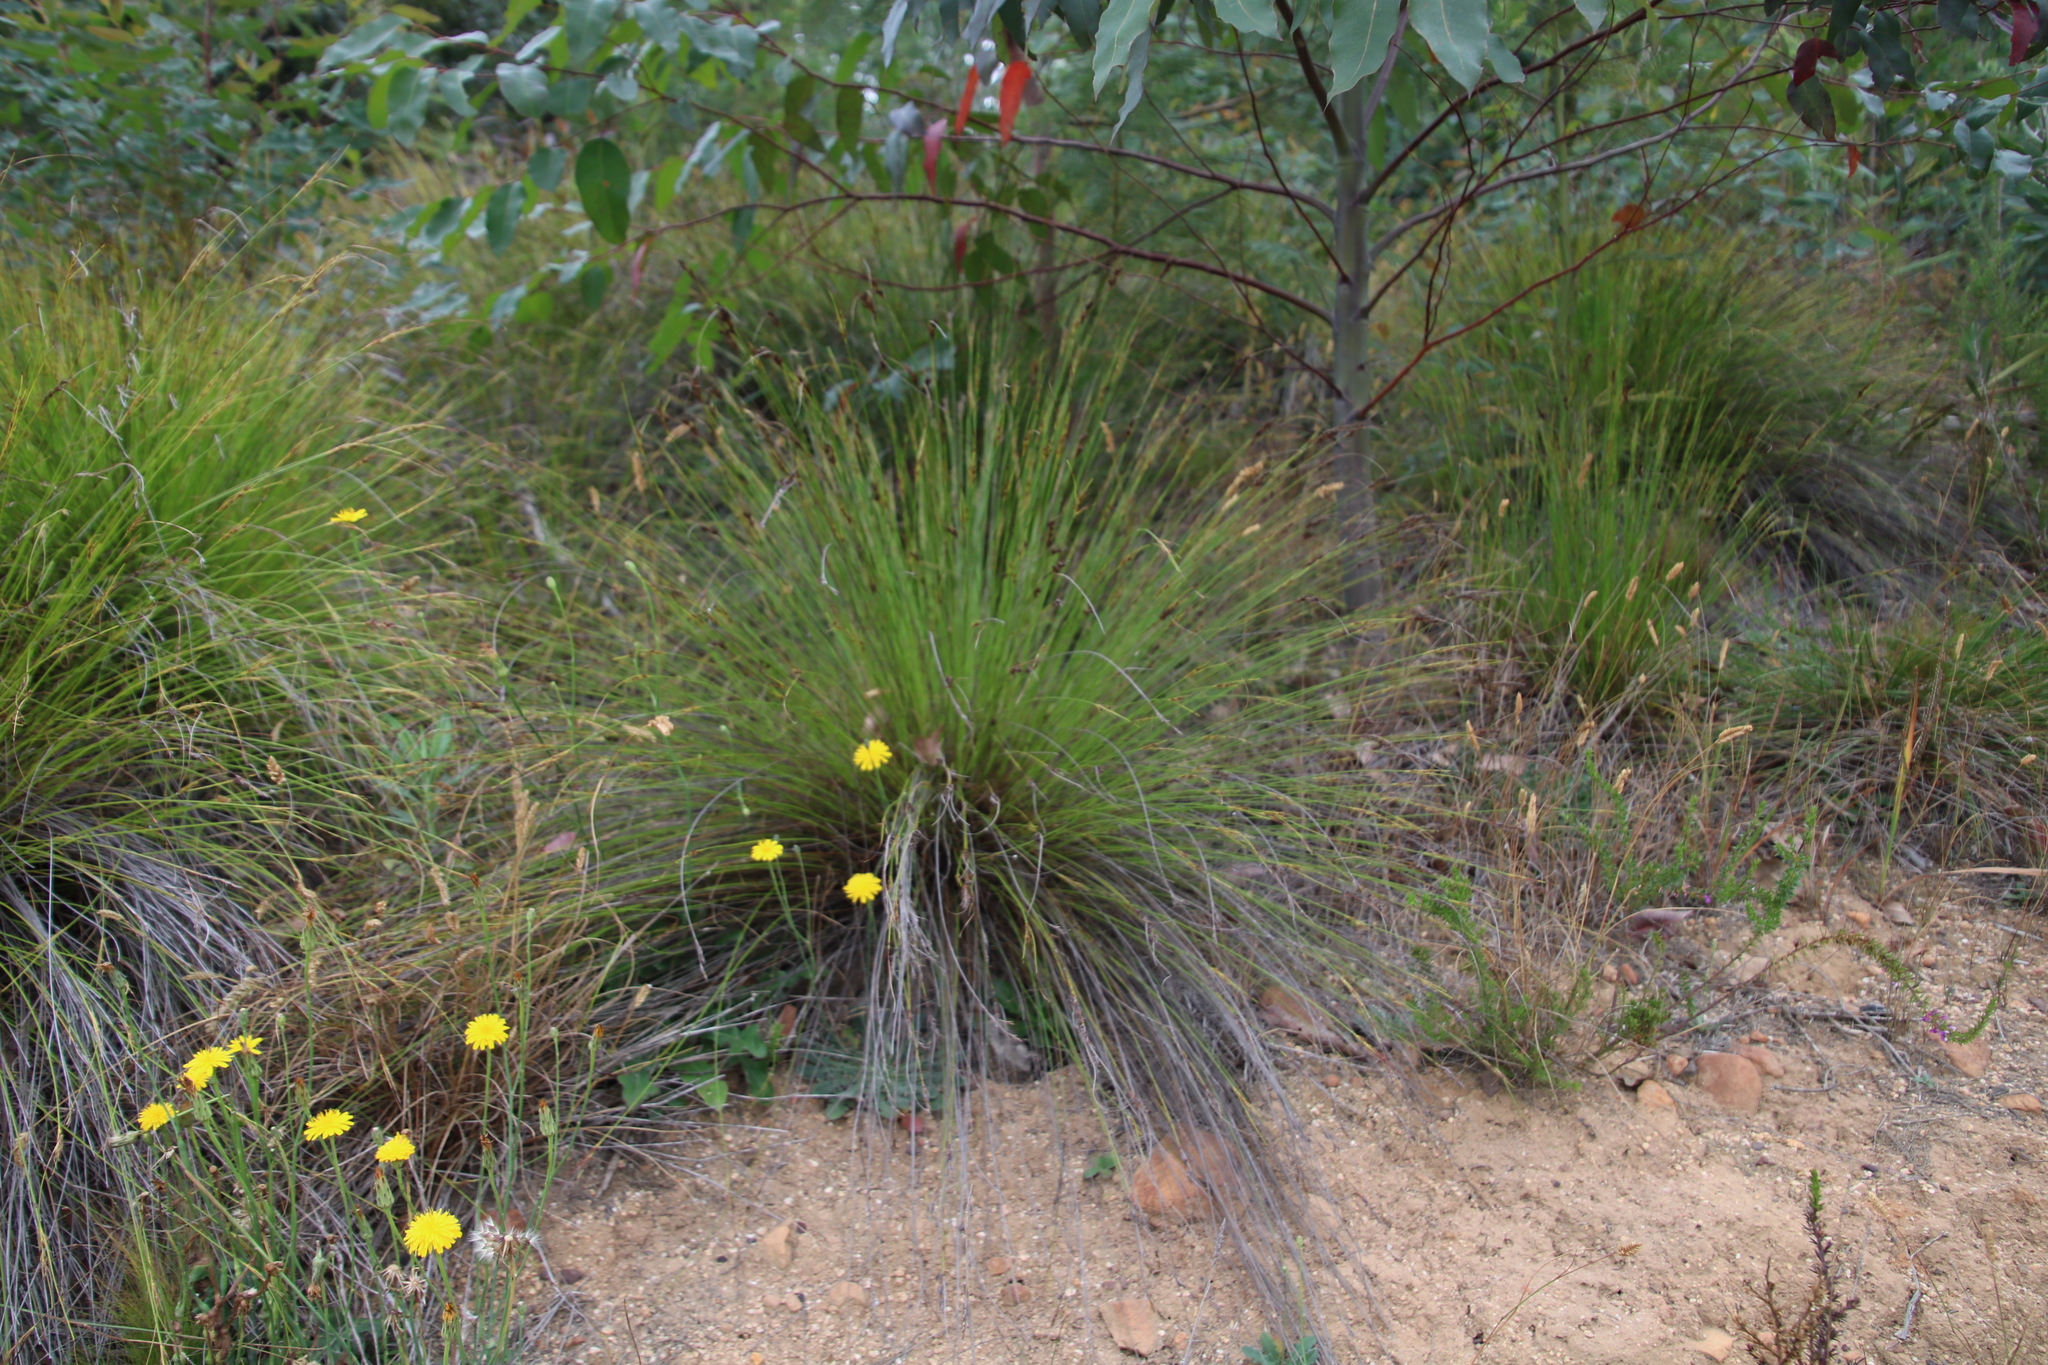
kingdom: Plantae
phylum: Tracheophyta
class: Liliopsida
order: Poales
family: Cyperaceae
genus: Schoenus
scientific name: Schoenus cuspidatus
